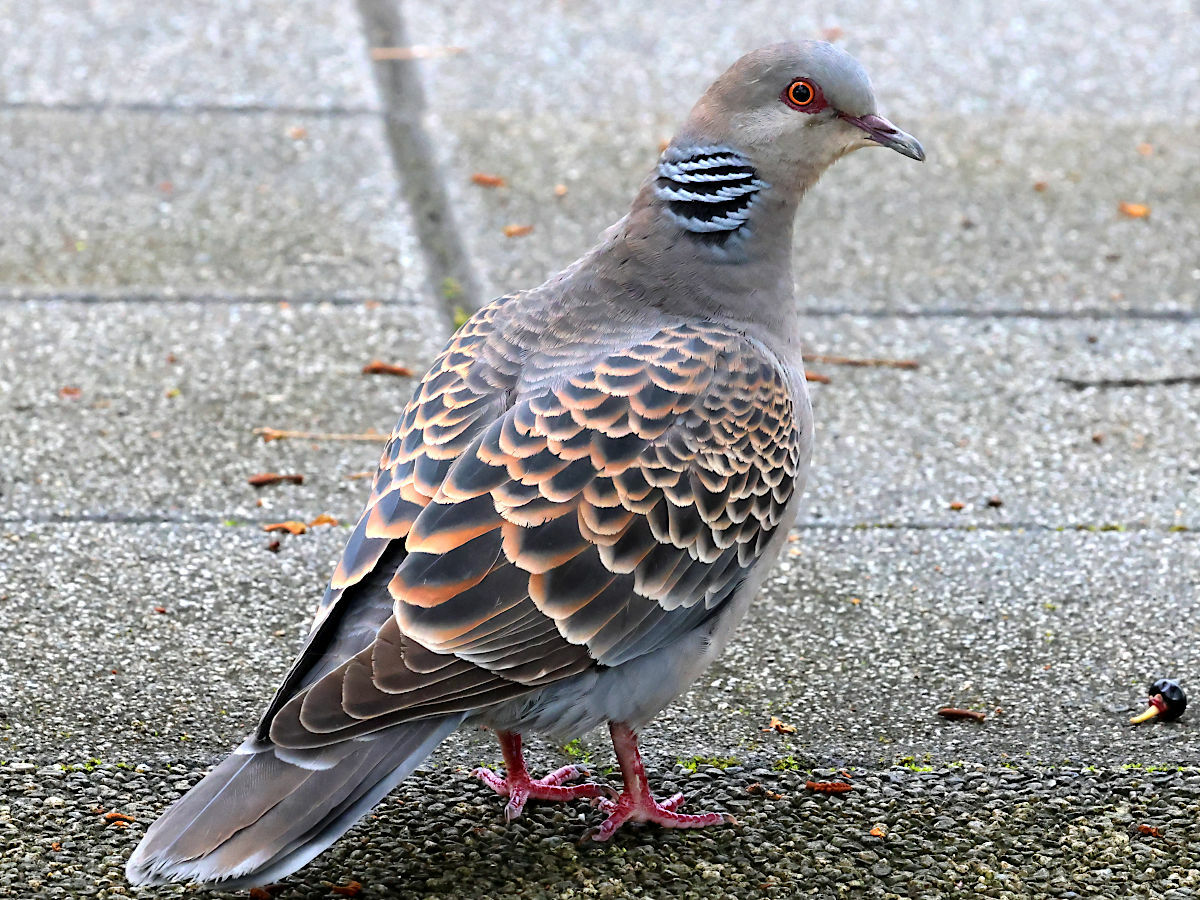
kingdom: Animalia
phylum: Chordata
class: Aves
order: Columbiformes
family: Columbidae
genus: Streptopelia
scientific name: Streptopelia orientalis
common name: Oriental turtle dove
